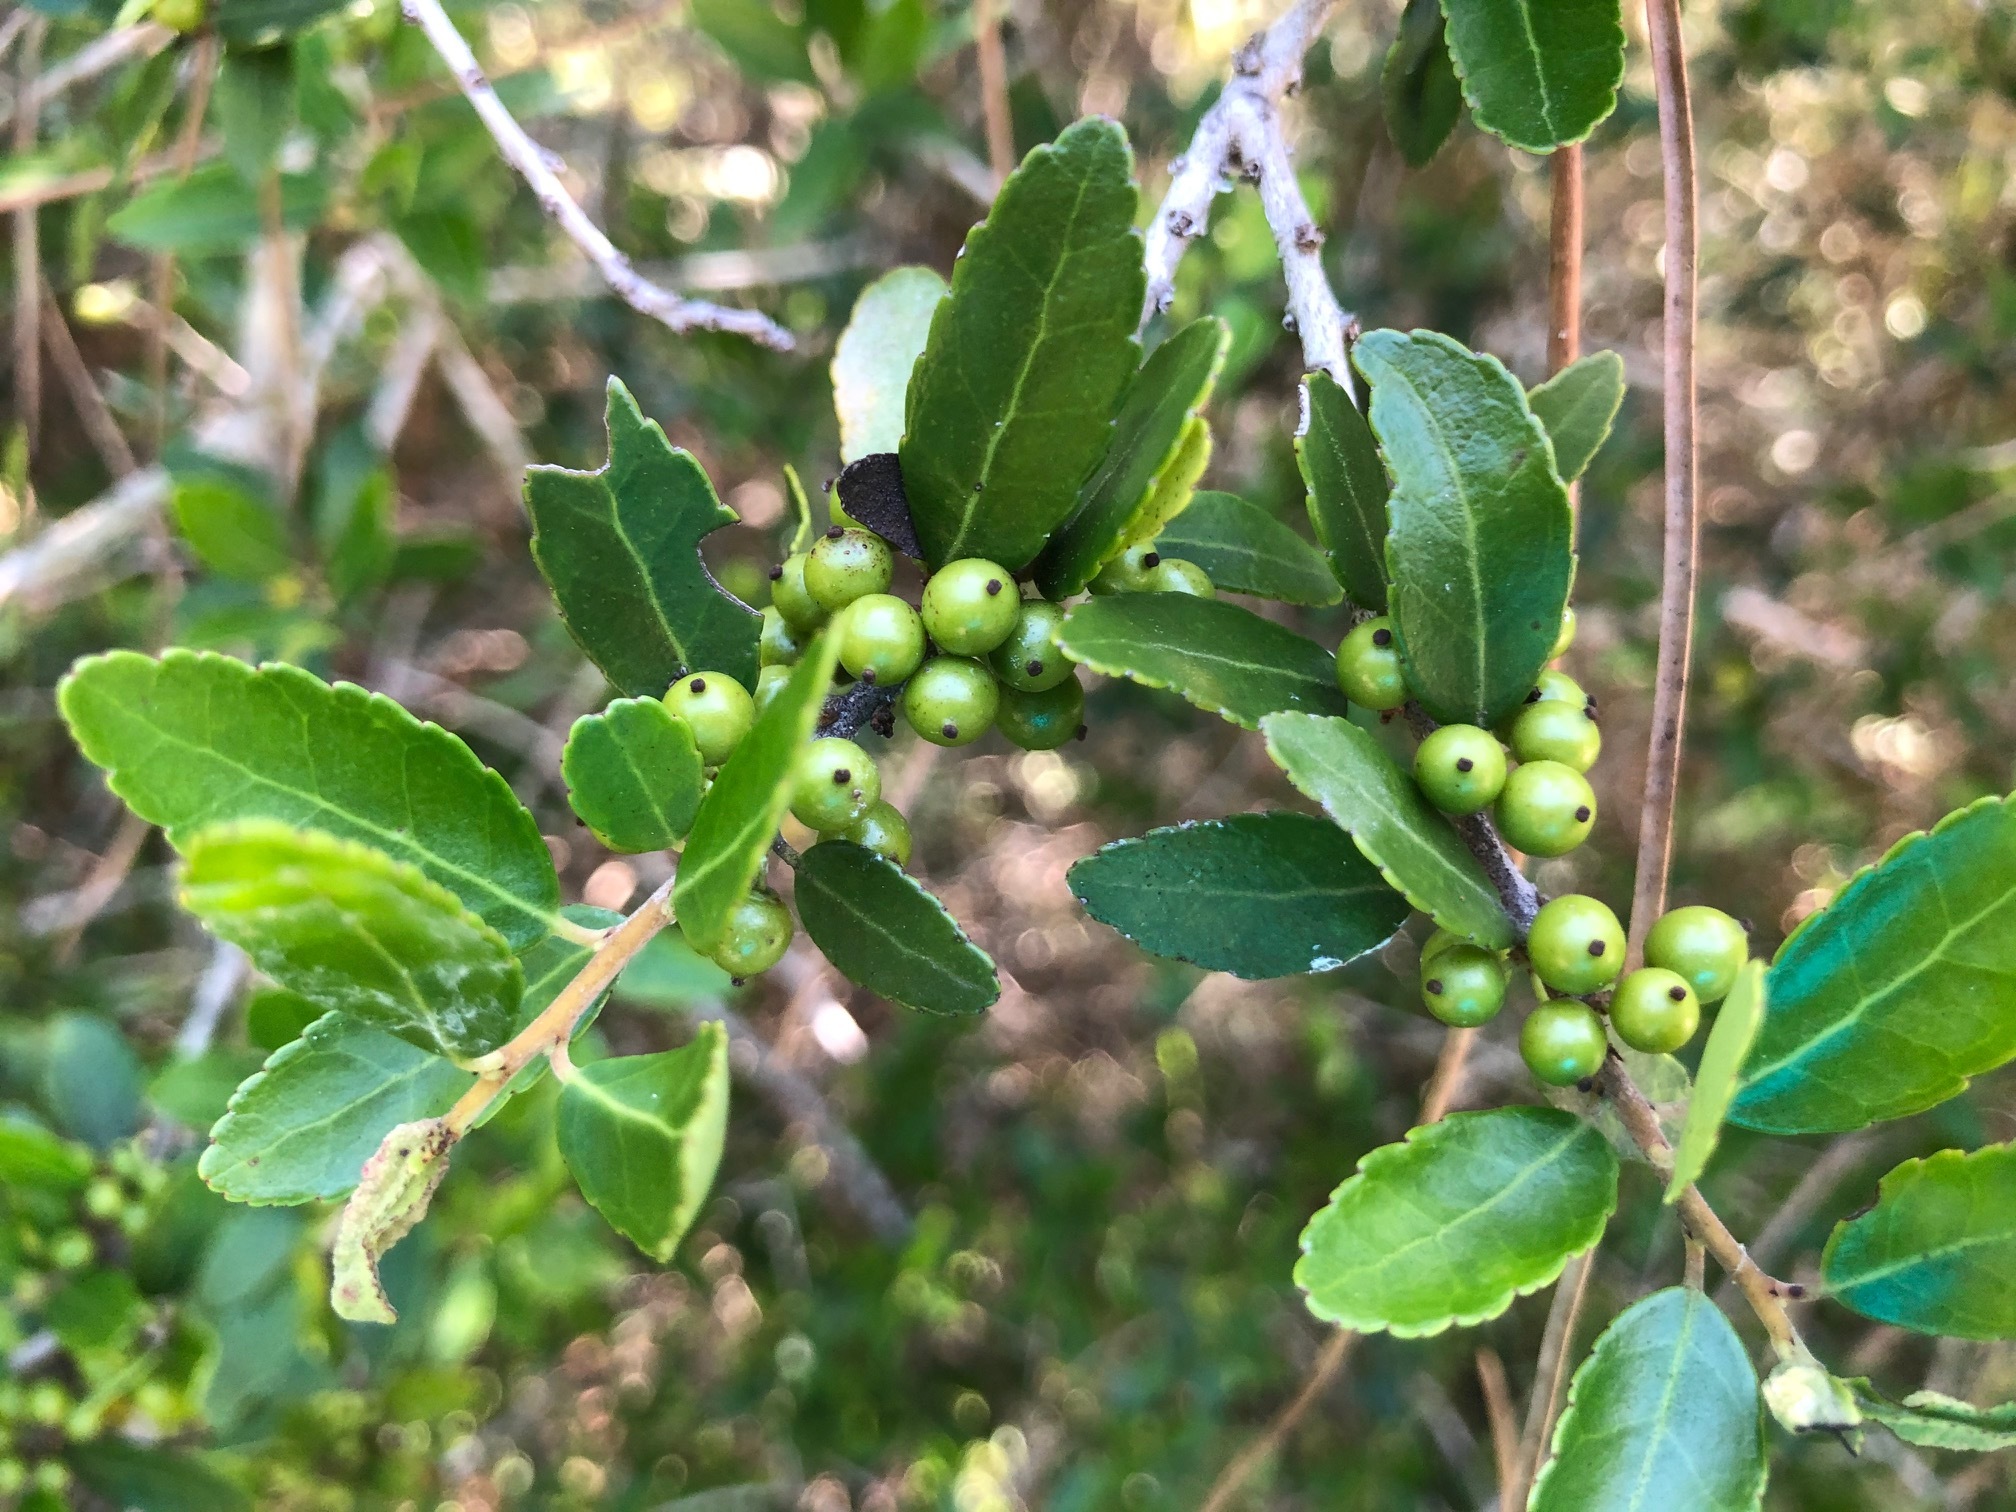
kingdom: Plantae
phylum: Tracheophyta
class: Magnoliopsida
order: Aquifoliales
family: Aquifoliaceae
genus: Ilex
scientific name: Ilex vomitoria
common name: Yaupon holly
